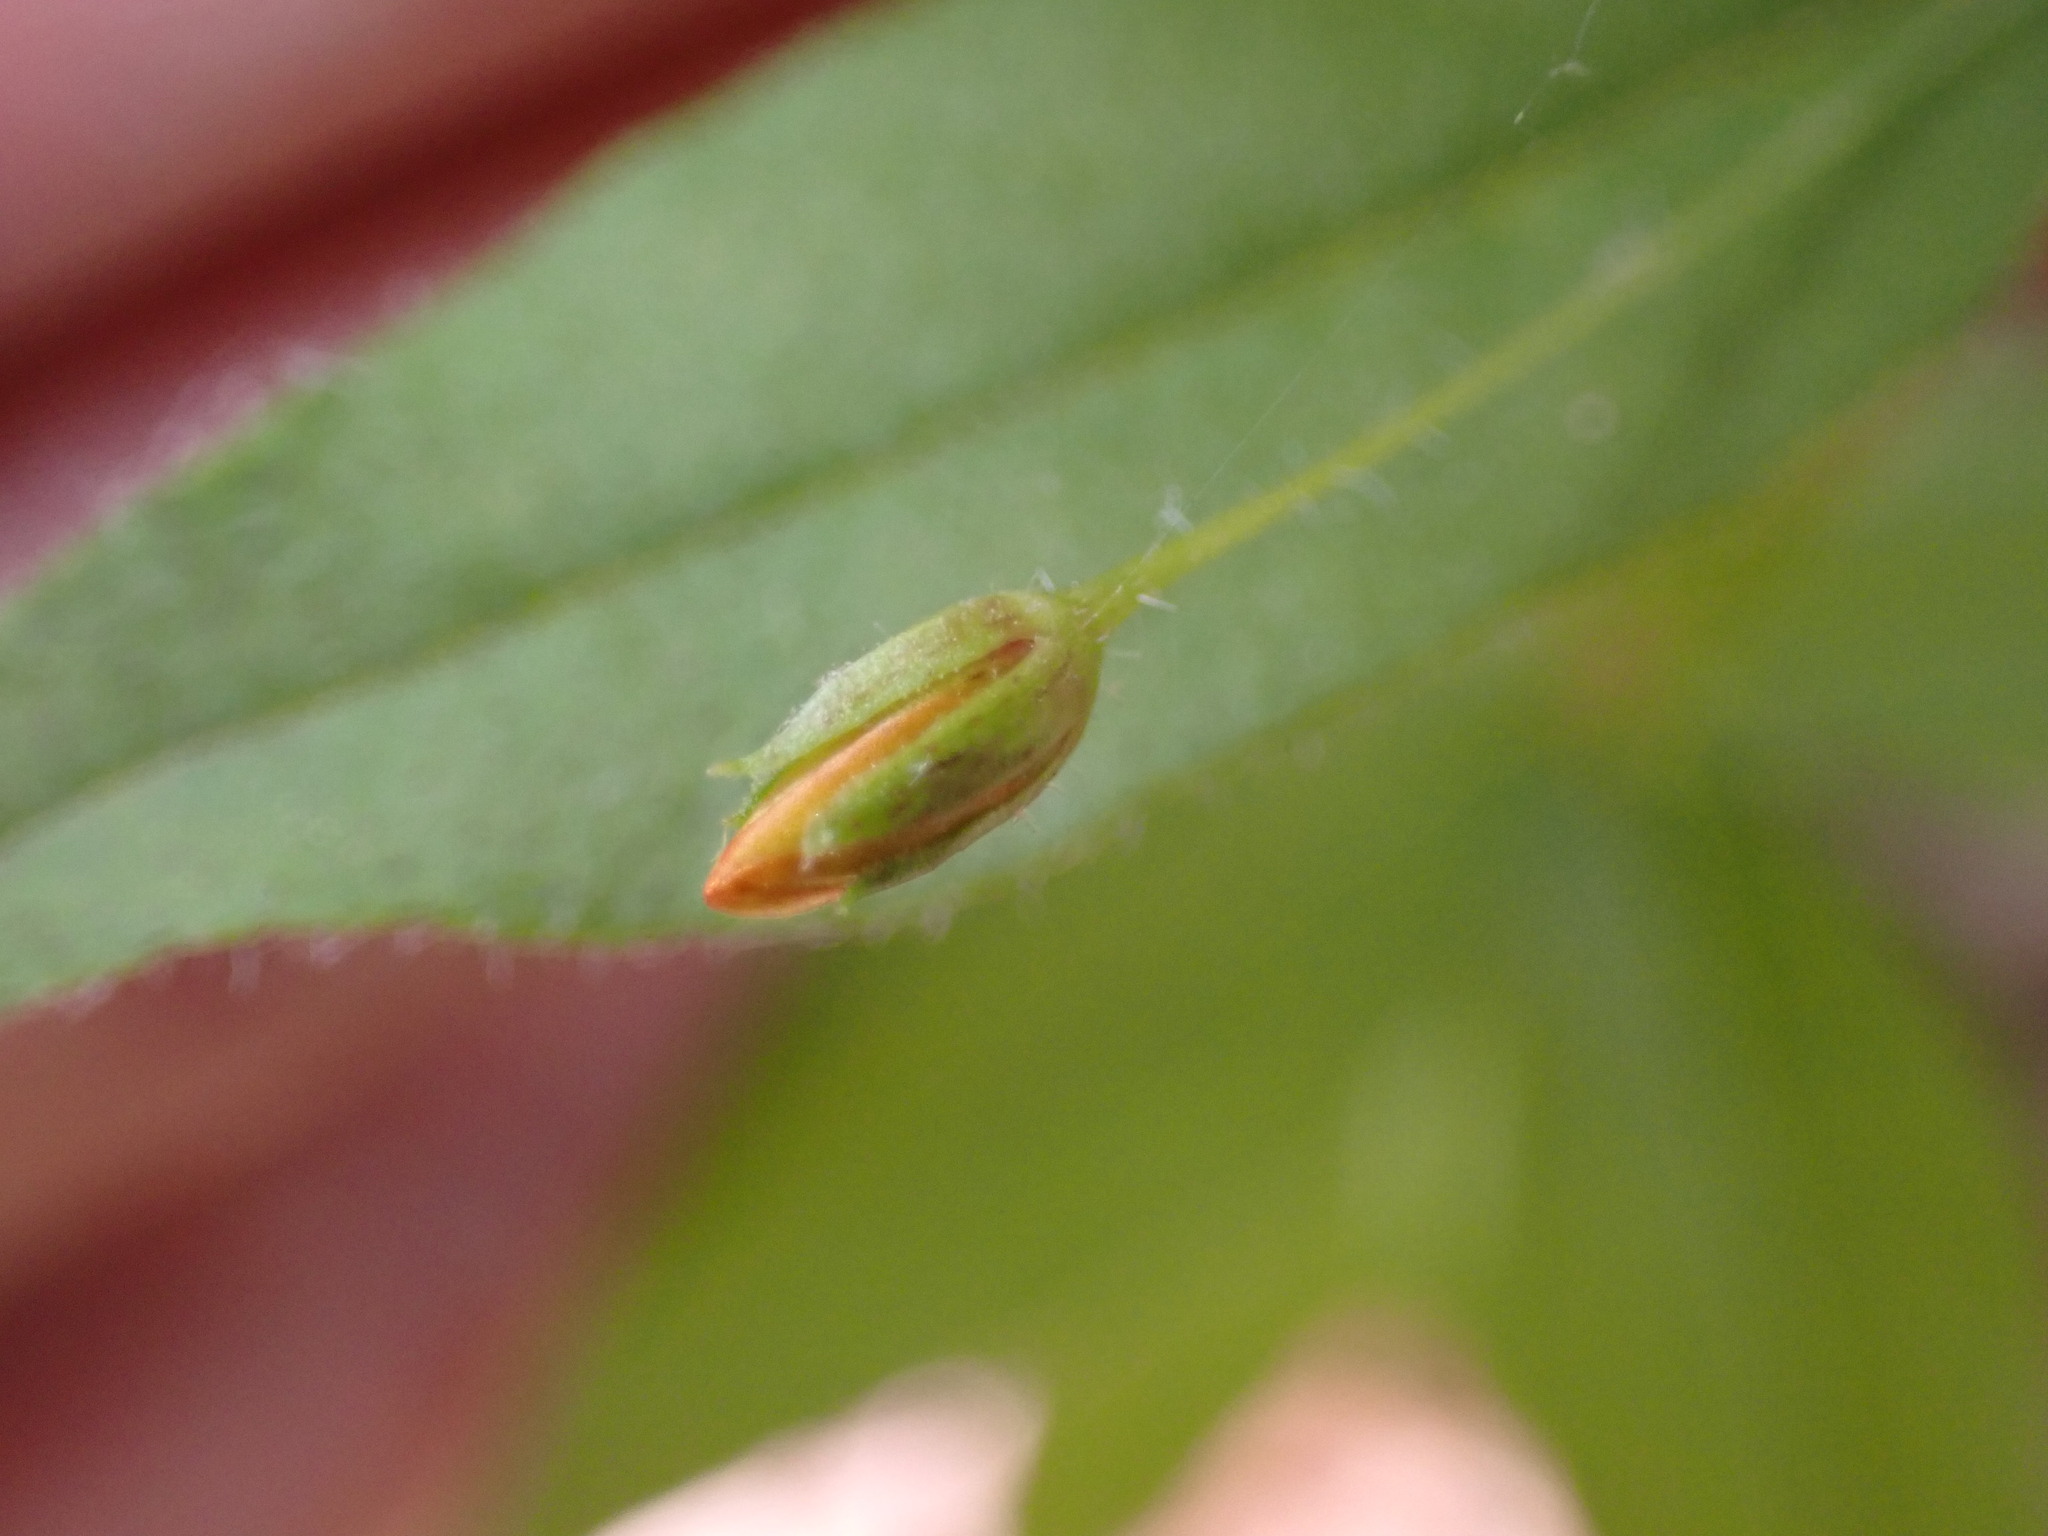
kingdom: Plantae
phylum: Tracheophyta
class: Magnoliopsida
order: Ericales
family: Primulaceae
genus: Lysimachia
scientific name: Lysimachia quadrifolia
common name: Whorled loosestrife
